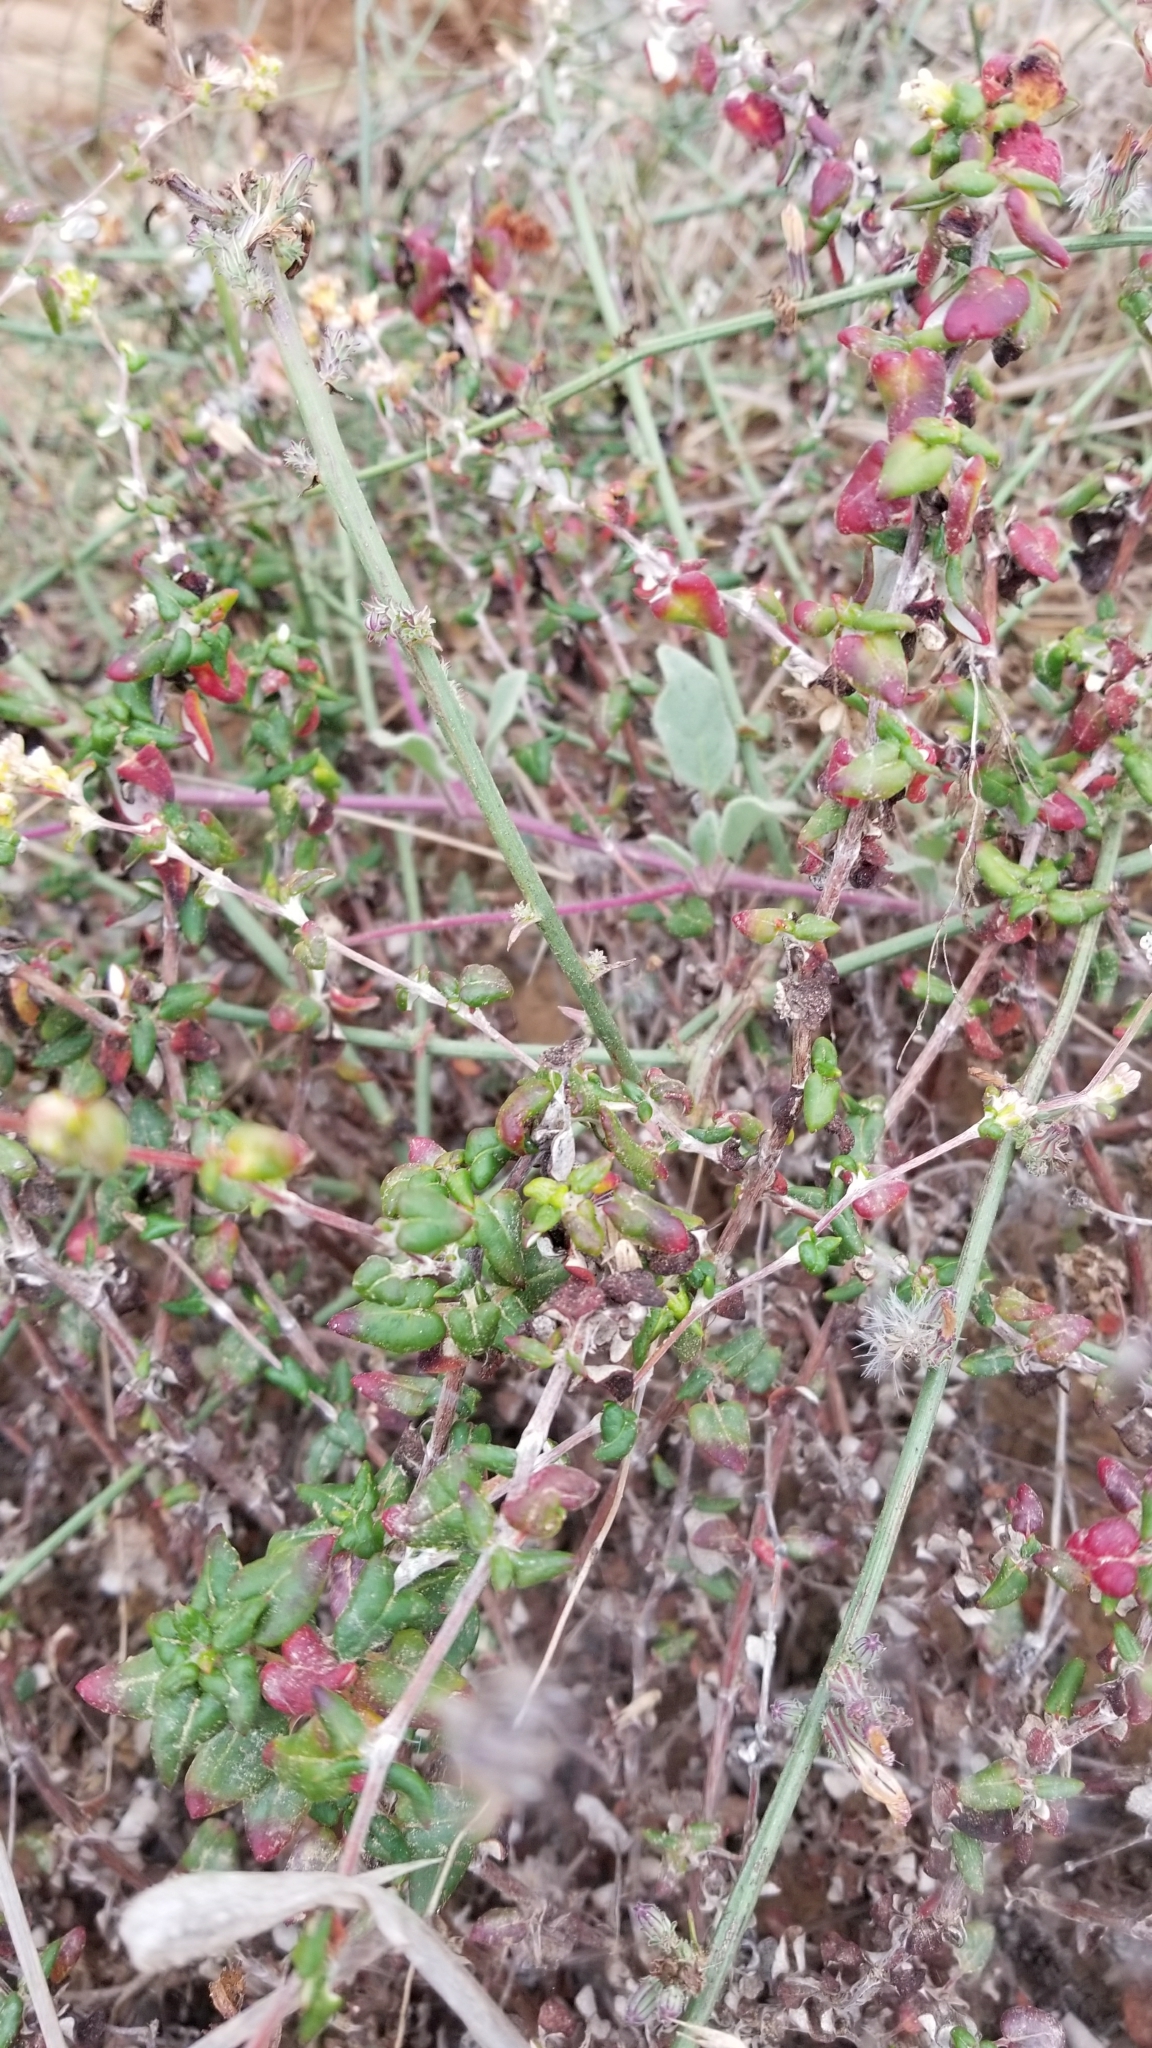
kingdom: Plantae
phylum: Tracheophyta
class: Magnoliopsida
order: Caryophyllales
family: Polygonaceae
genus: Eriogonum
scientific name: Eriogonum parvifolium
